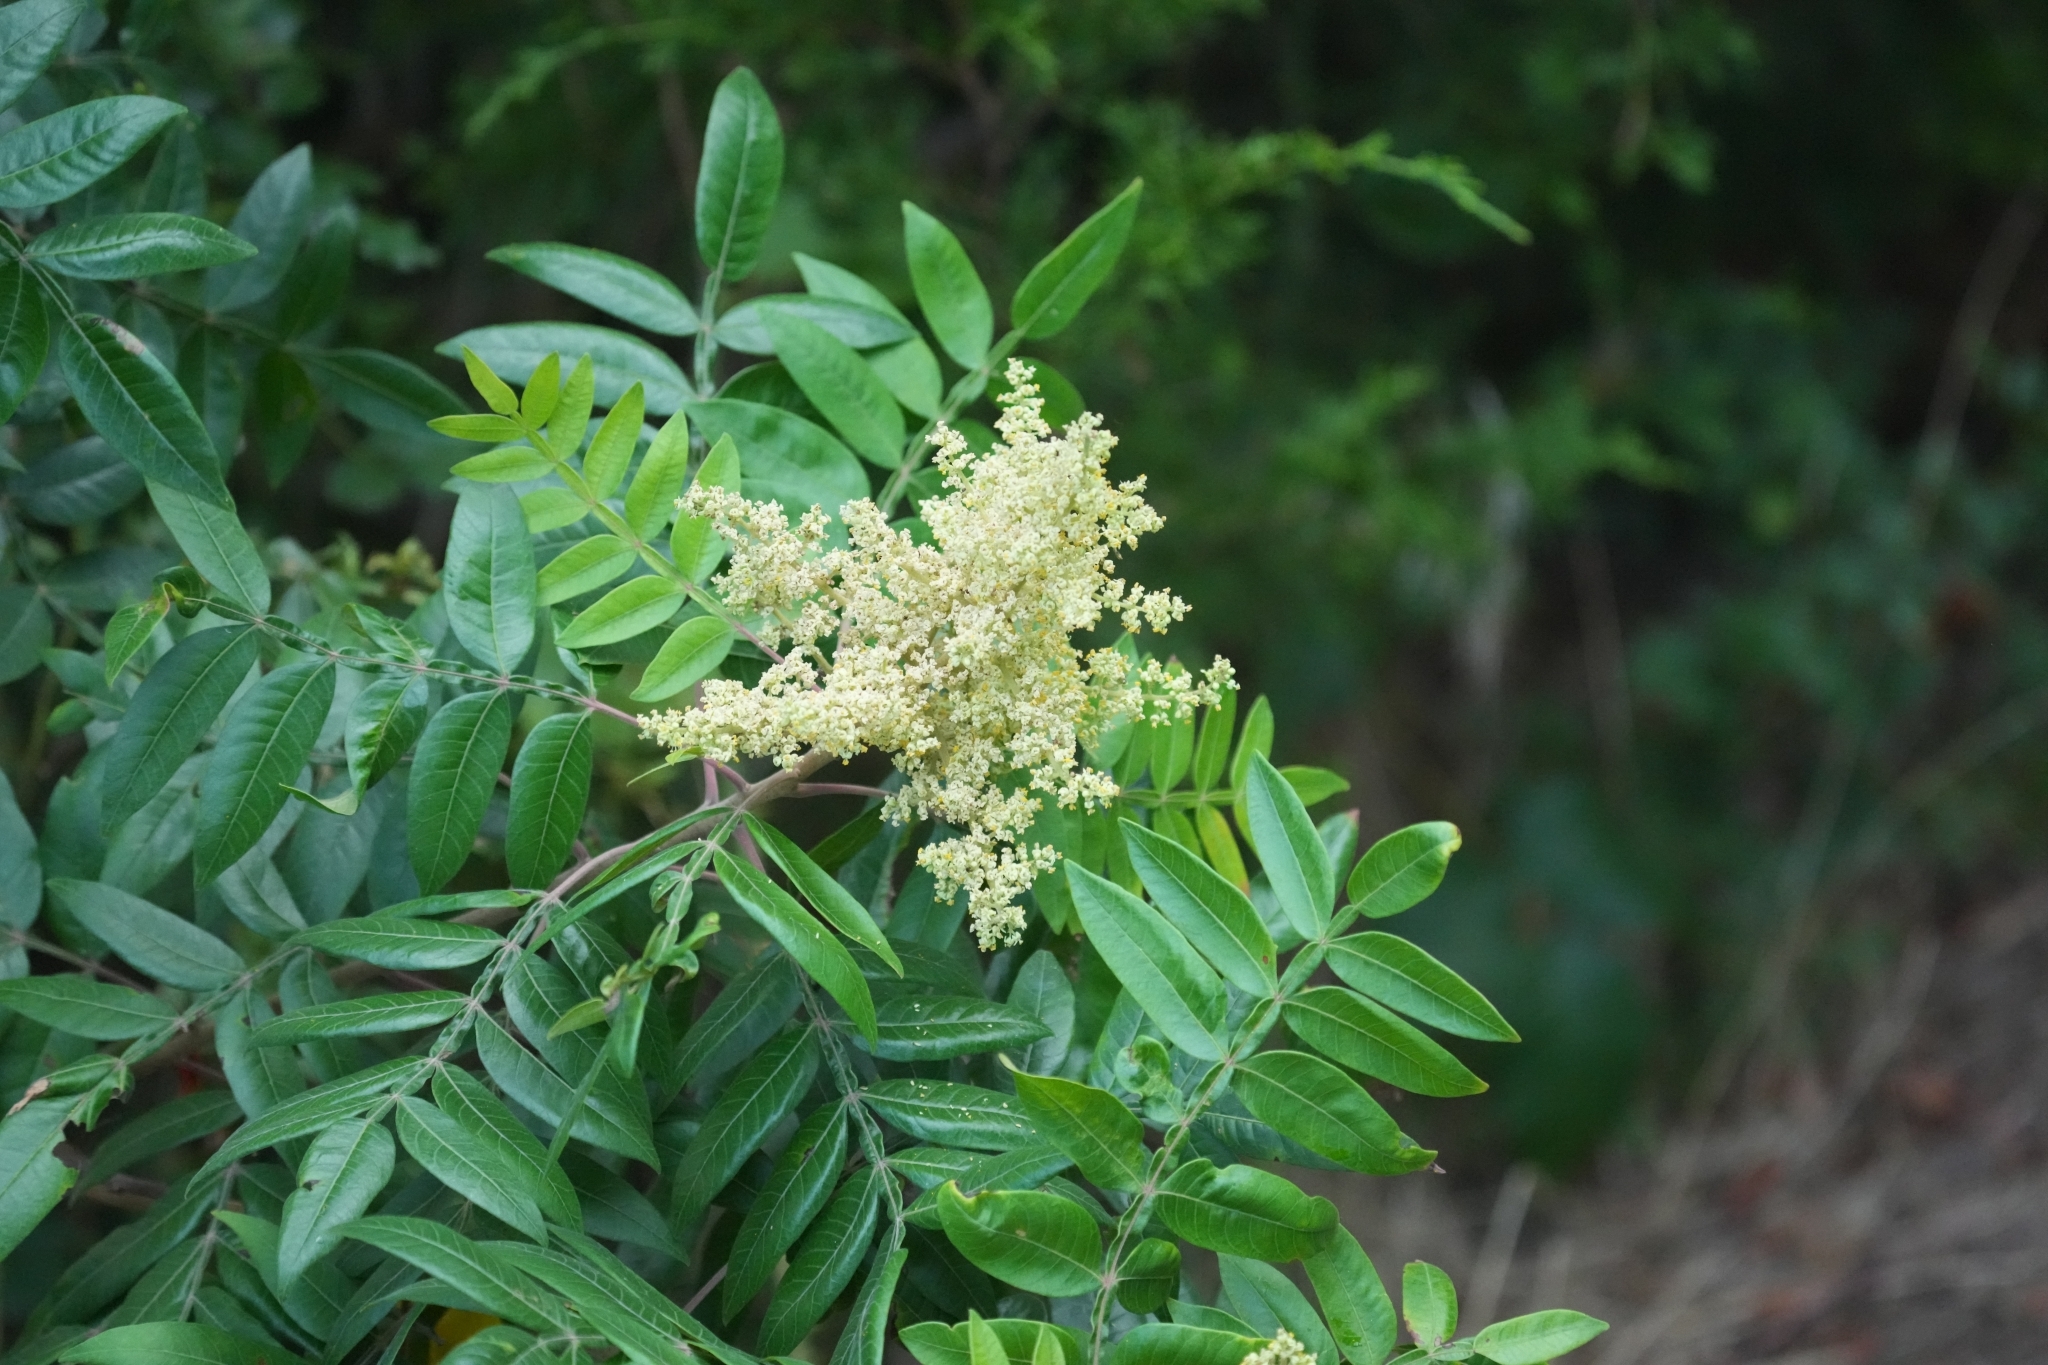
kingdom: Plantae
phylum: Tracheophyta
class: Magnoliopsida
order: Sapindales
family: Anacardiaceae
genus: Rhus
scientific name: Rhus copallina
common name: Shining sumac
